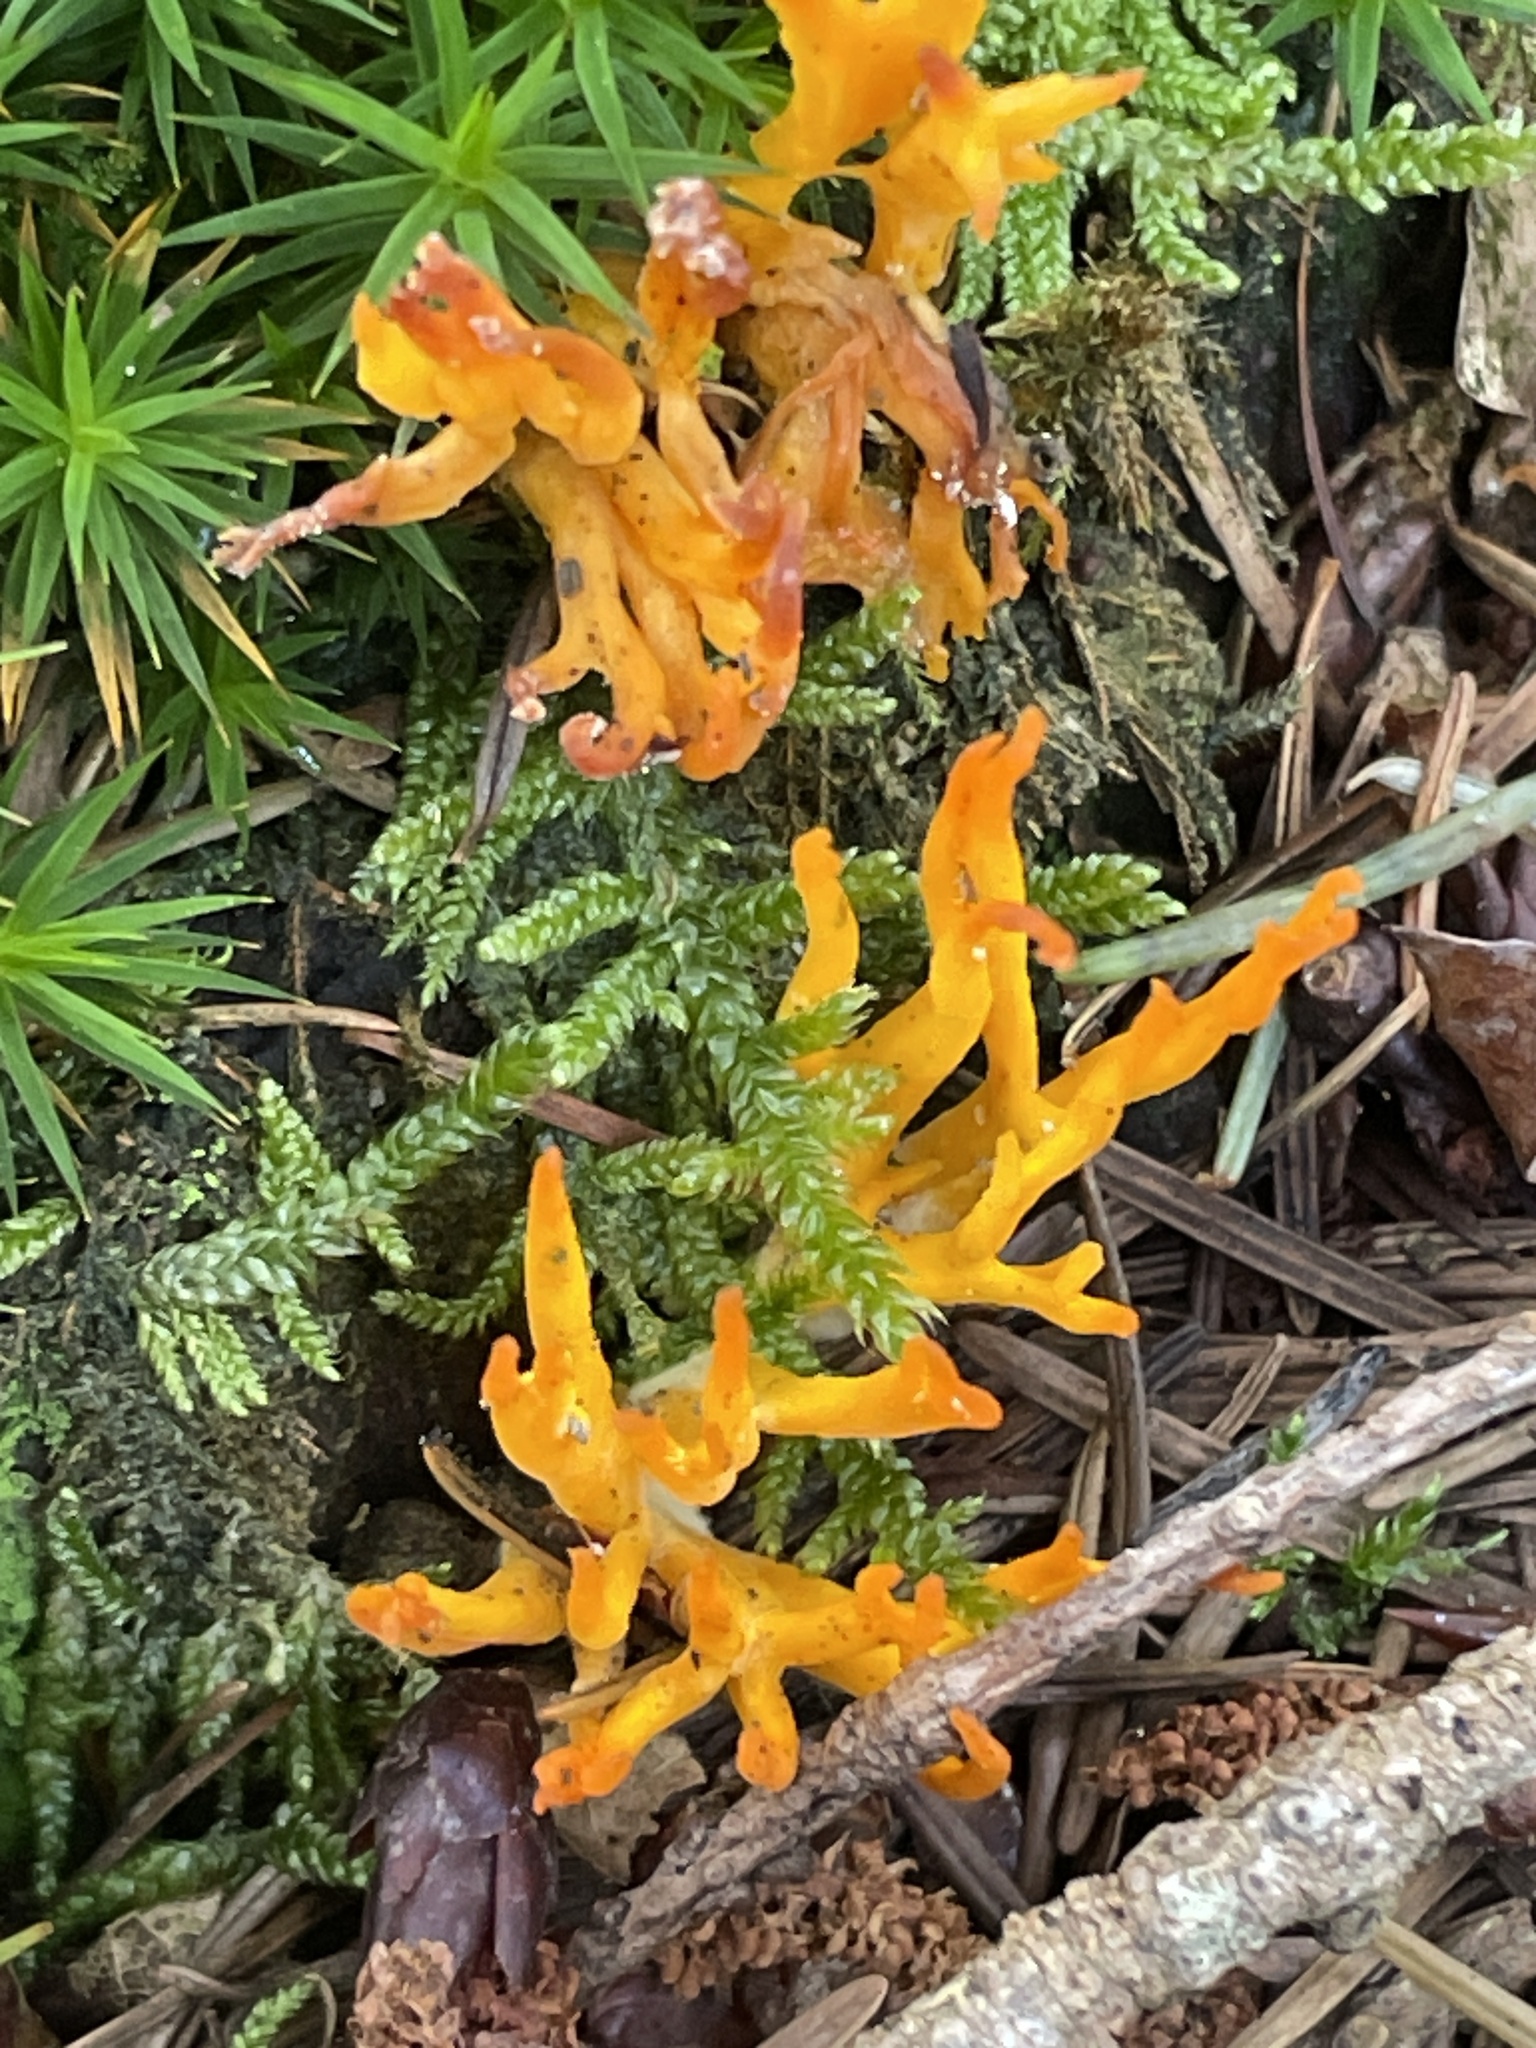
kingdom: Fungi
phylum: Basidiomycota
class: Dacrymycetes
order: Dacrymycetales
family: Dacrymycetaceae
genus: Calocera
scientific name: Calocera viscosa
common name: Yellow stagshorn
